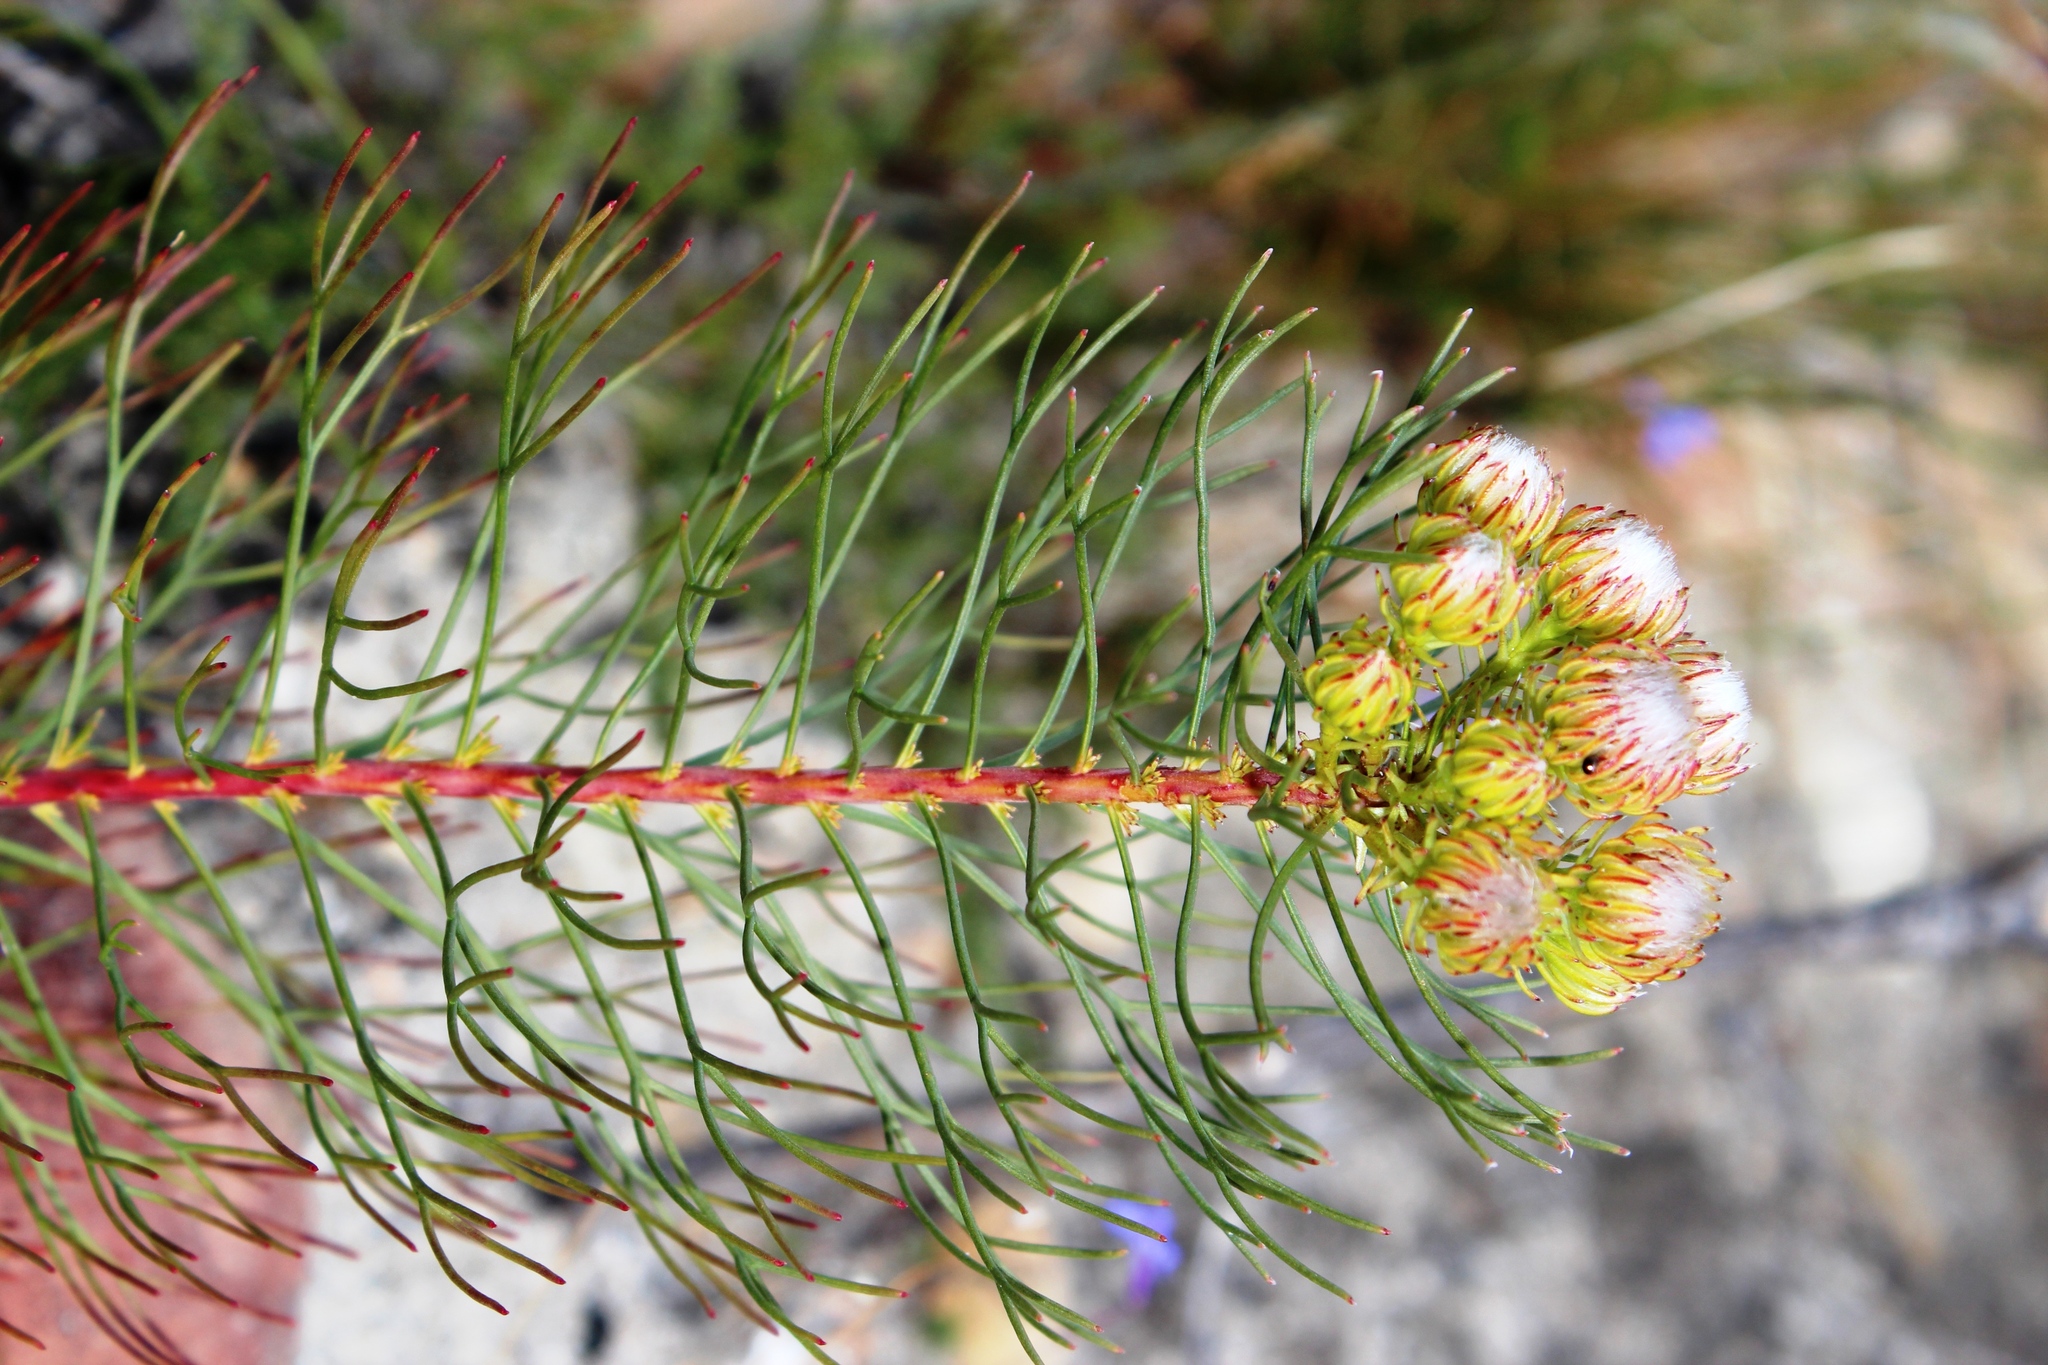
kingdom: Plantae
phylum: Tracheophyta
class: Magnoliopsida
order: Proteales
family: Proteaceae
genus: Serruria
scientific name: Serruria phylicoides
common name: Bearded spiderhead
